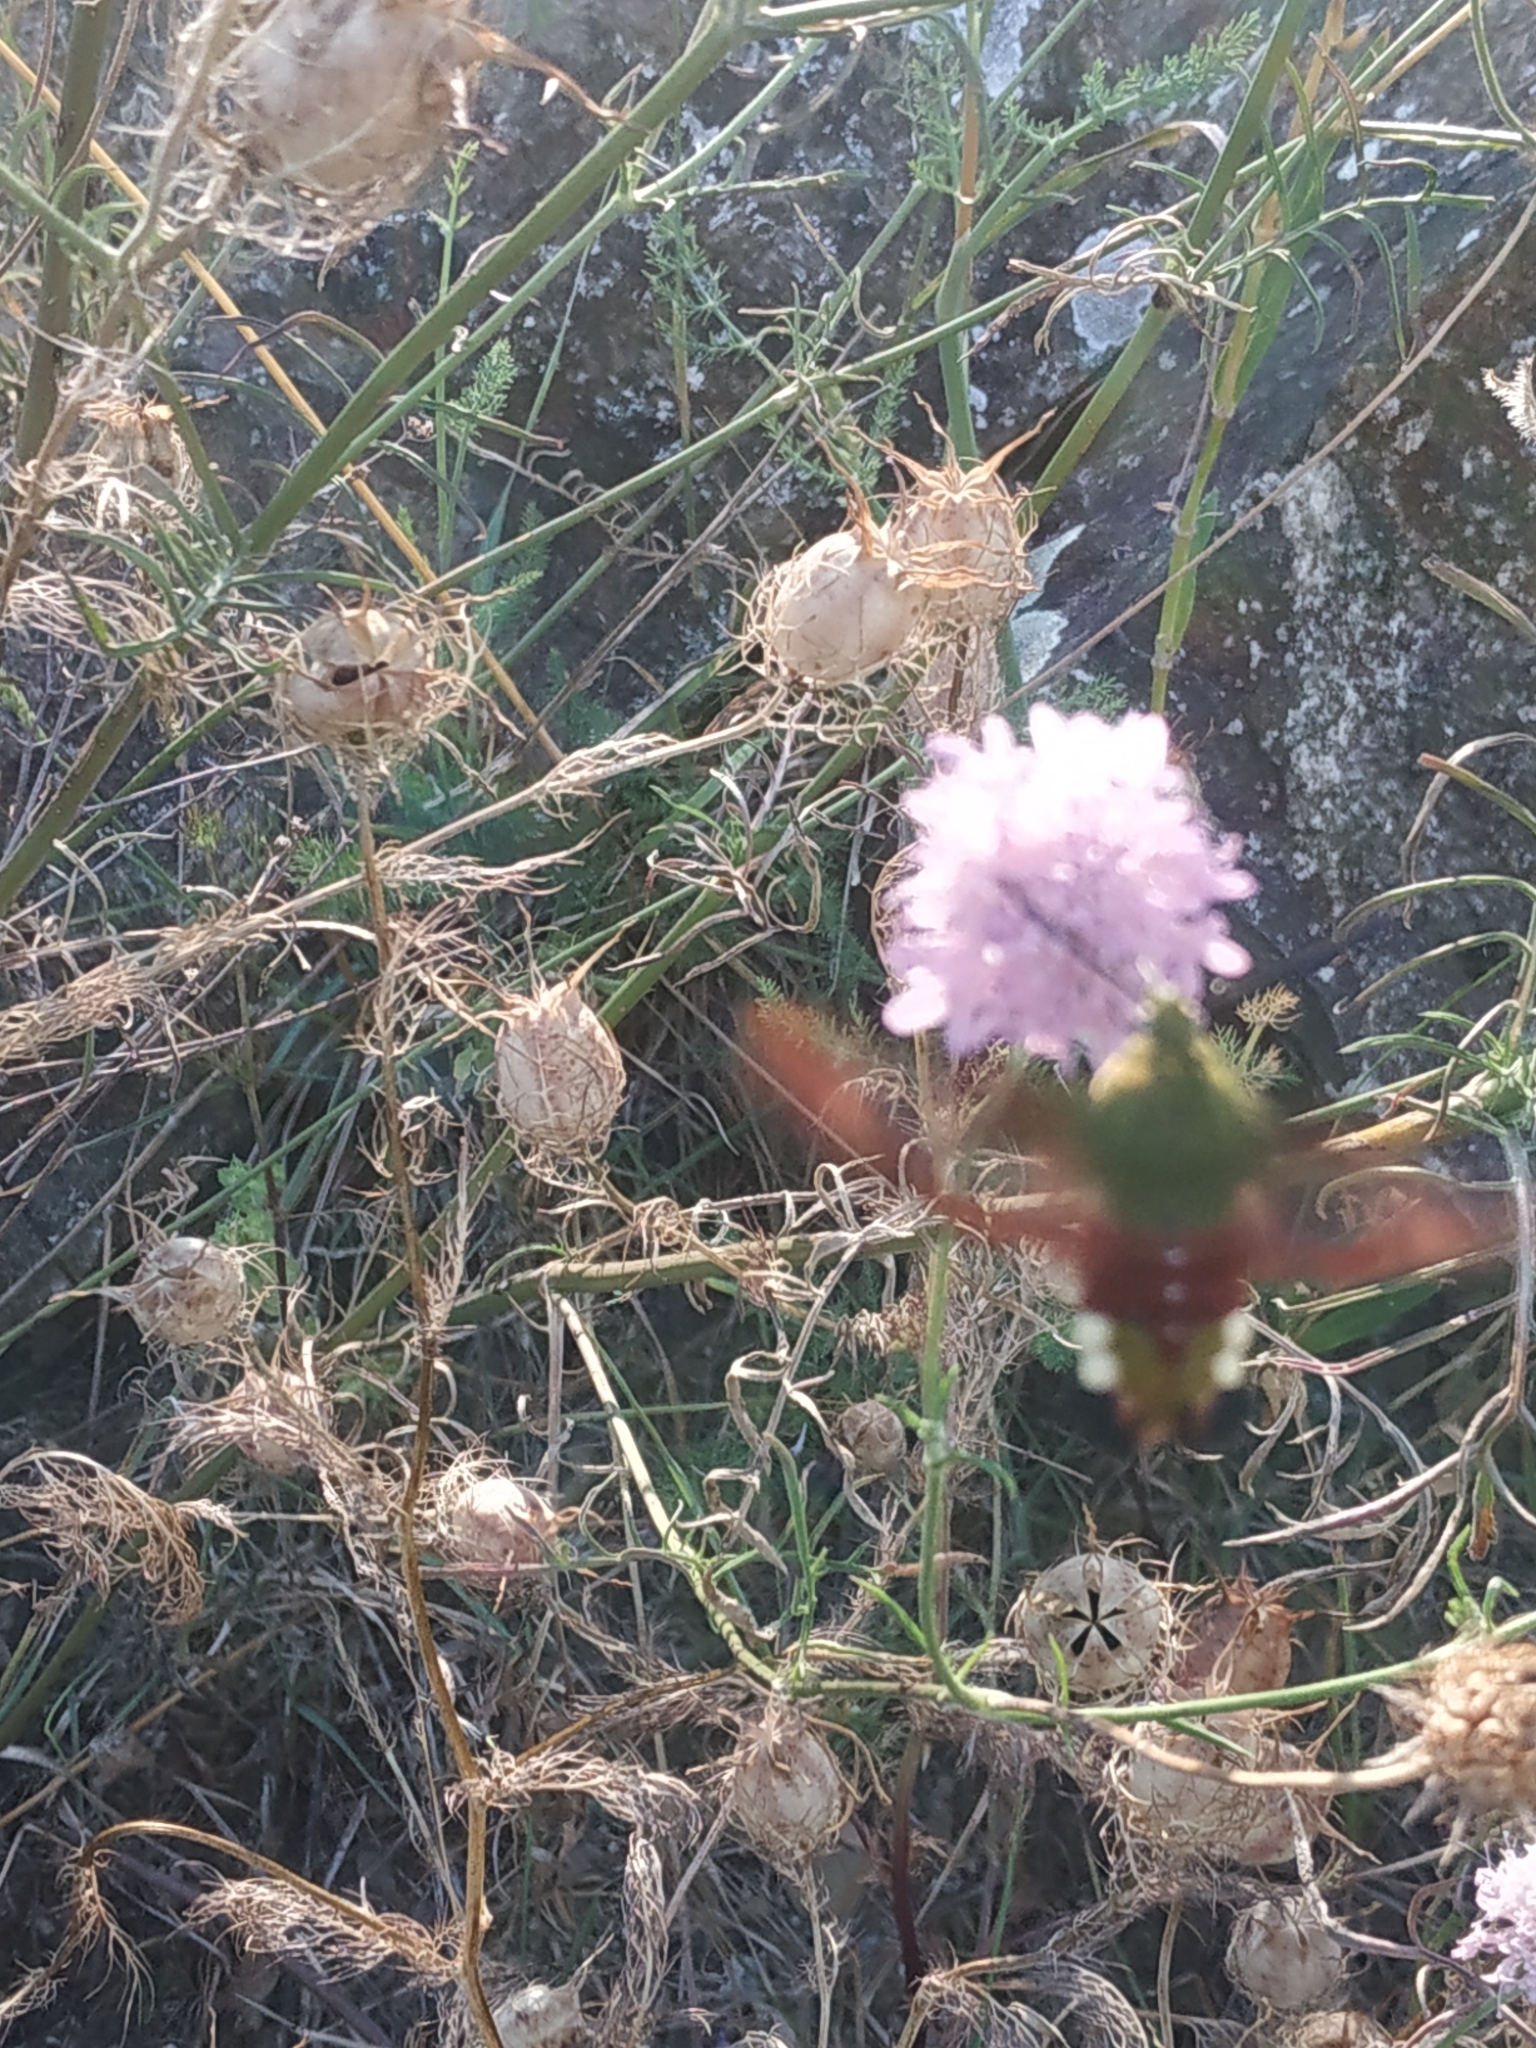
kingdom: Animalia
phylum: Arthropoda
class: Insecta
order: Lepidoptera
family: Sphingidae
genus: Hemaris
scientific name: Hemaris fuciformis
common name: Broad-bordered bee hawk-moth
